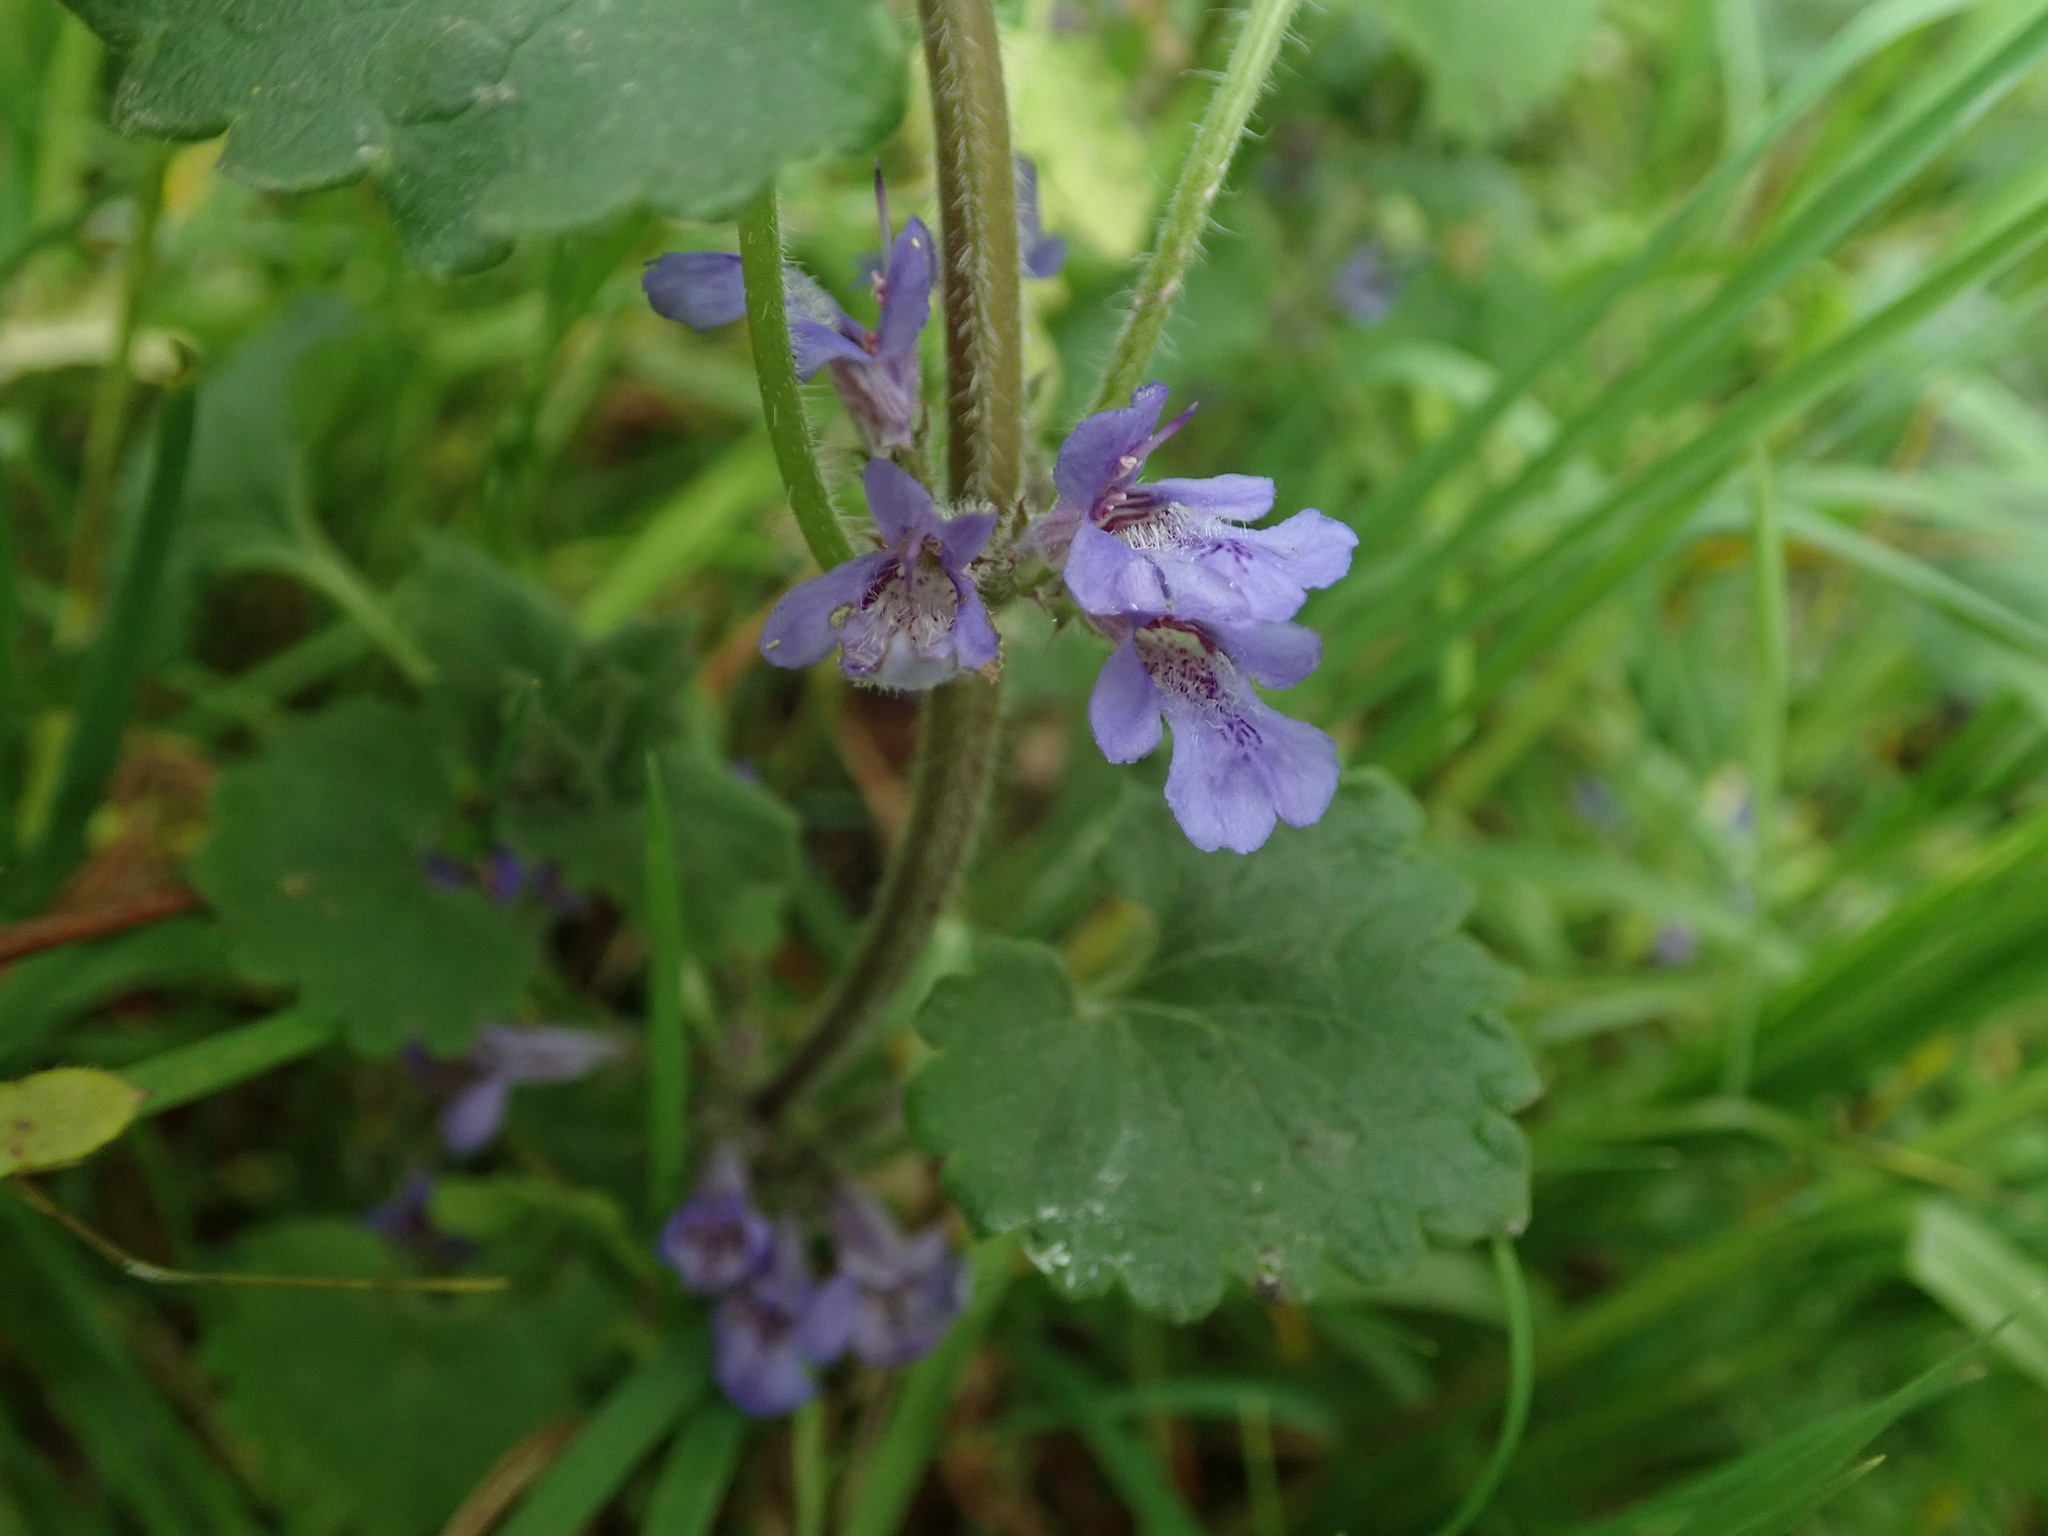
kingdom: Plantae
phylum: Tracheophyta
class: Magnoliopsida
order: Lamiales
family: Lamiaceae
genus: Glechoma
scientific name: Glechoma hederacea
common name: Ground ivy
